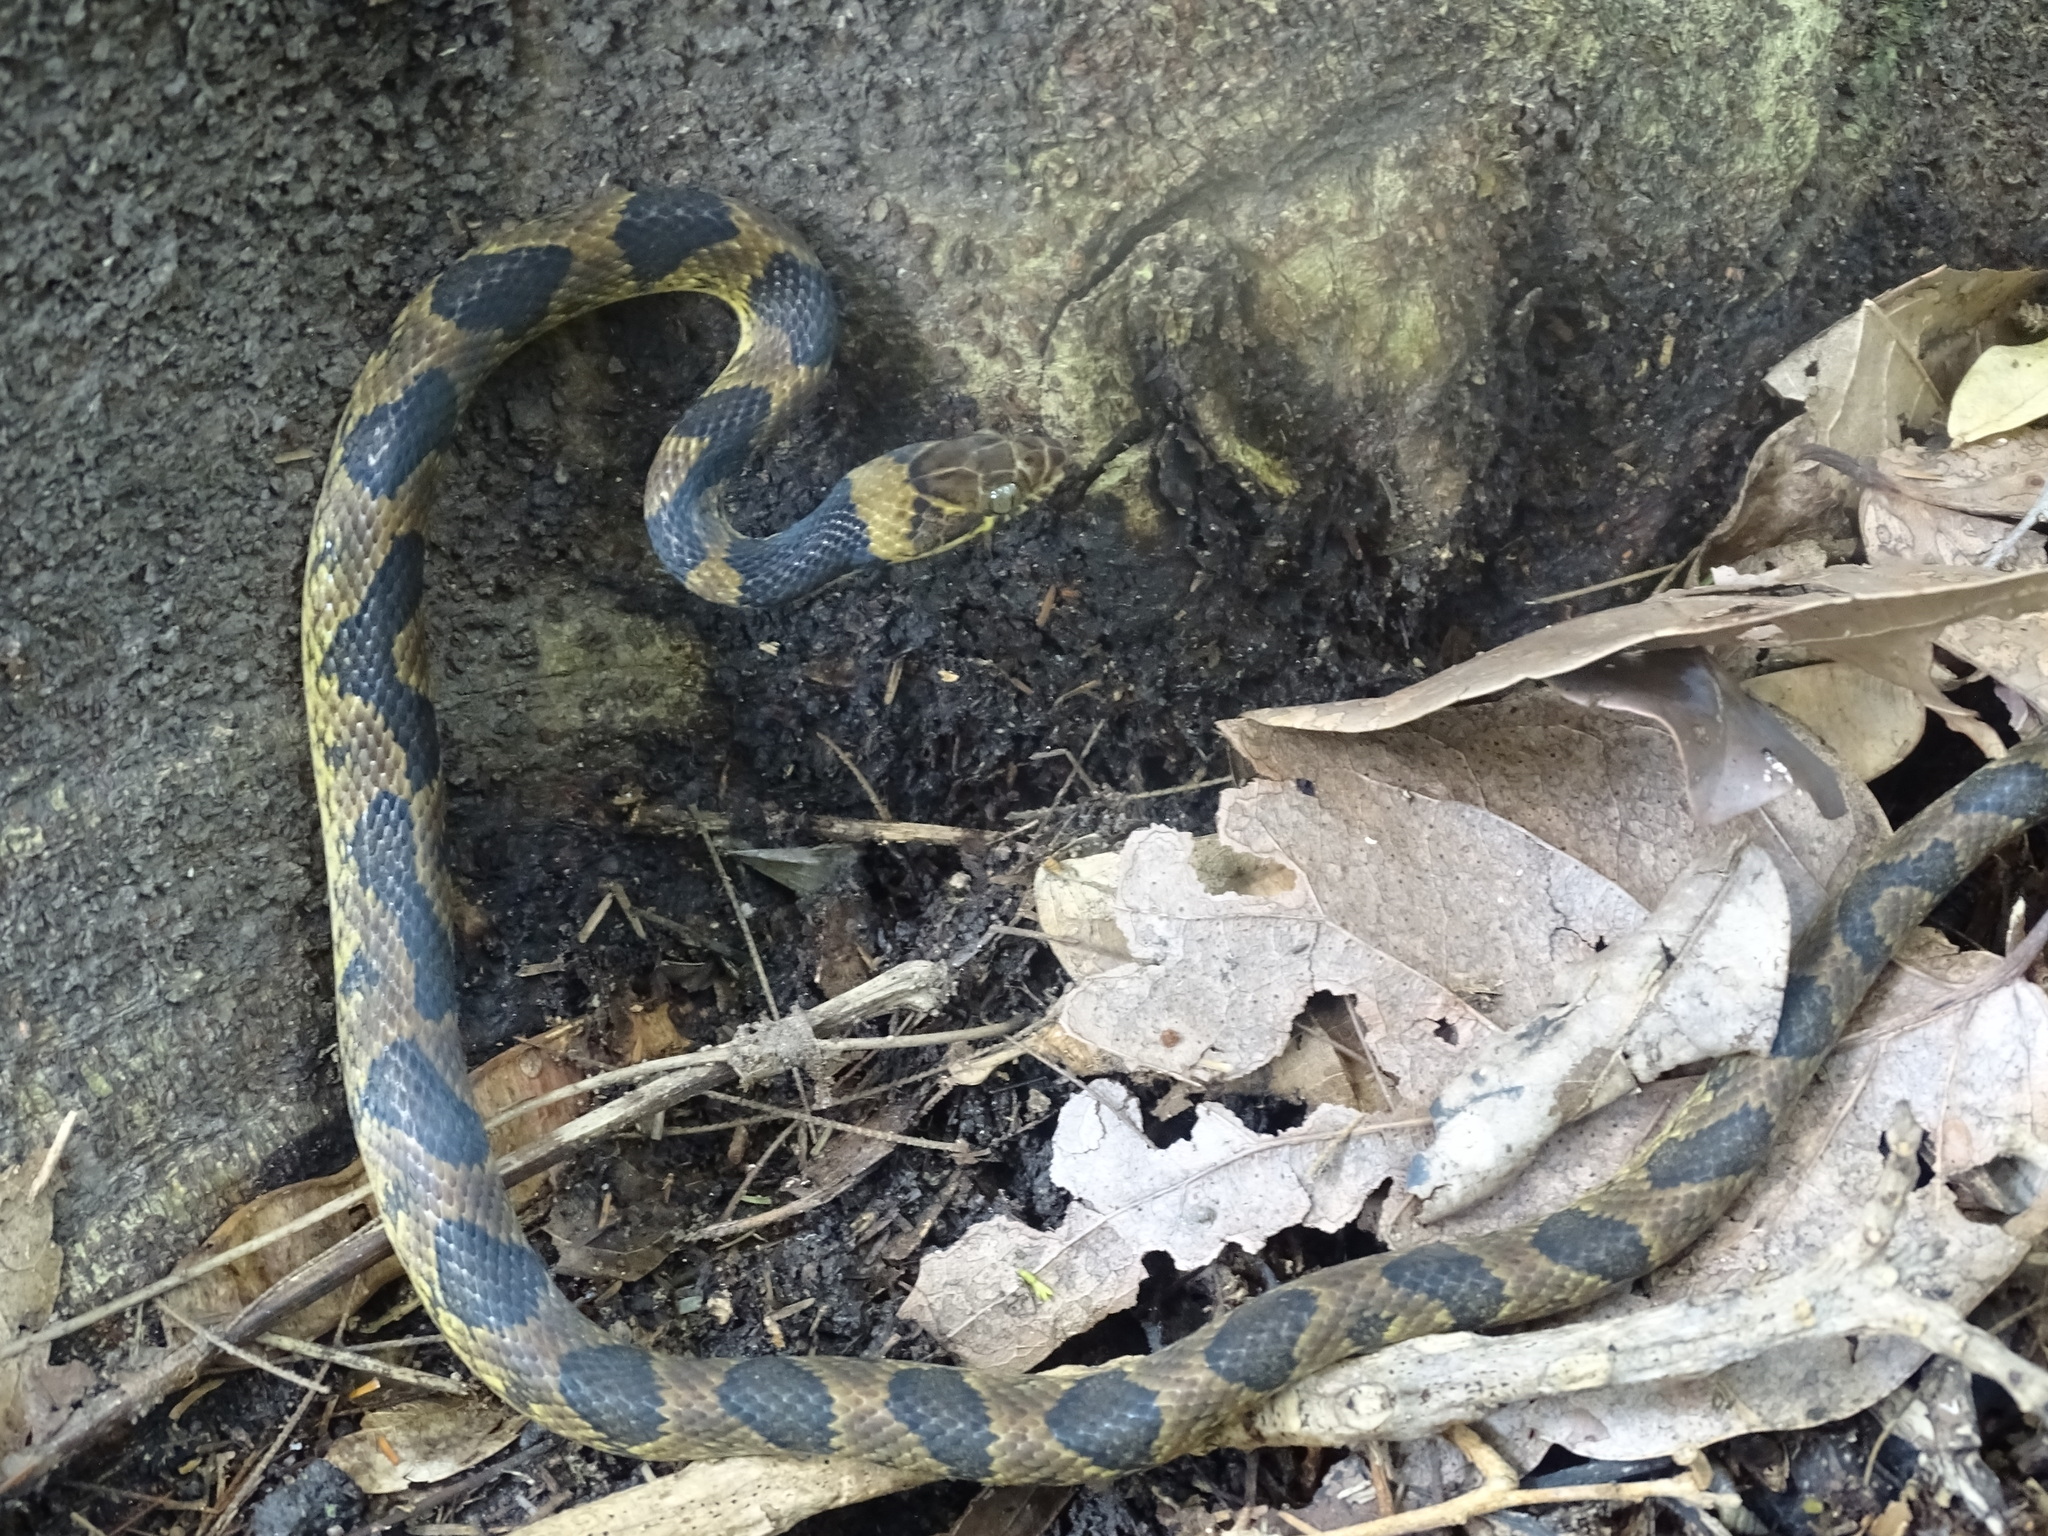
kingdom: Animalia
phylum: Chordata
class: Squamata
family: Colubridae
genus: Leptodeira
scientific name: Leptodeira maculata
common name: Southwestern cat-eyed snake
